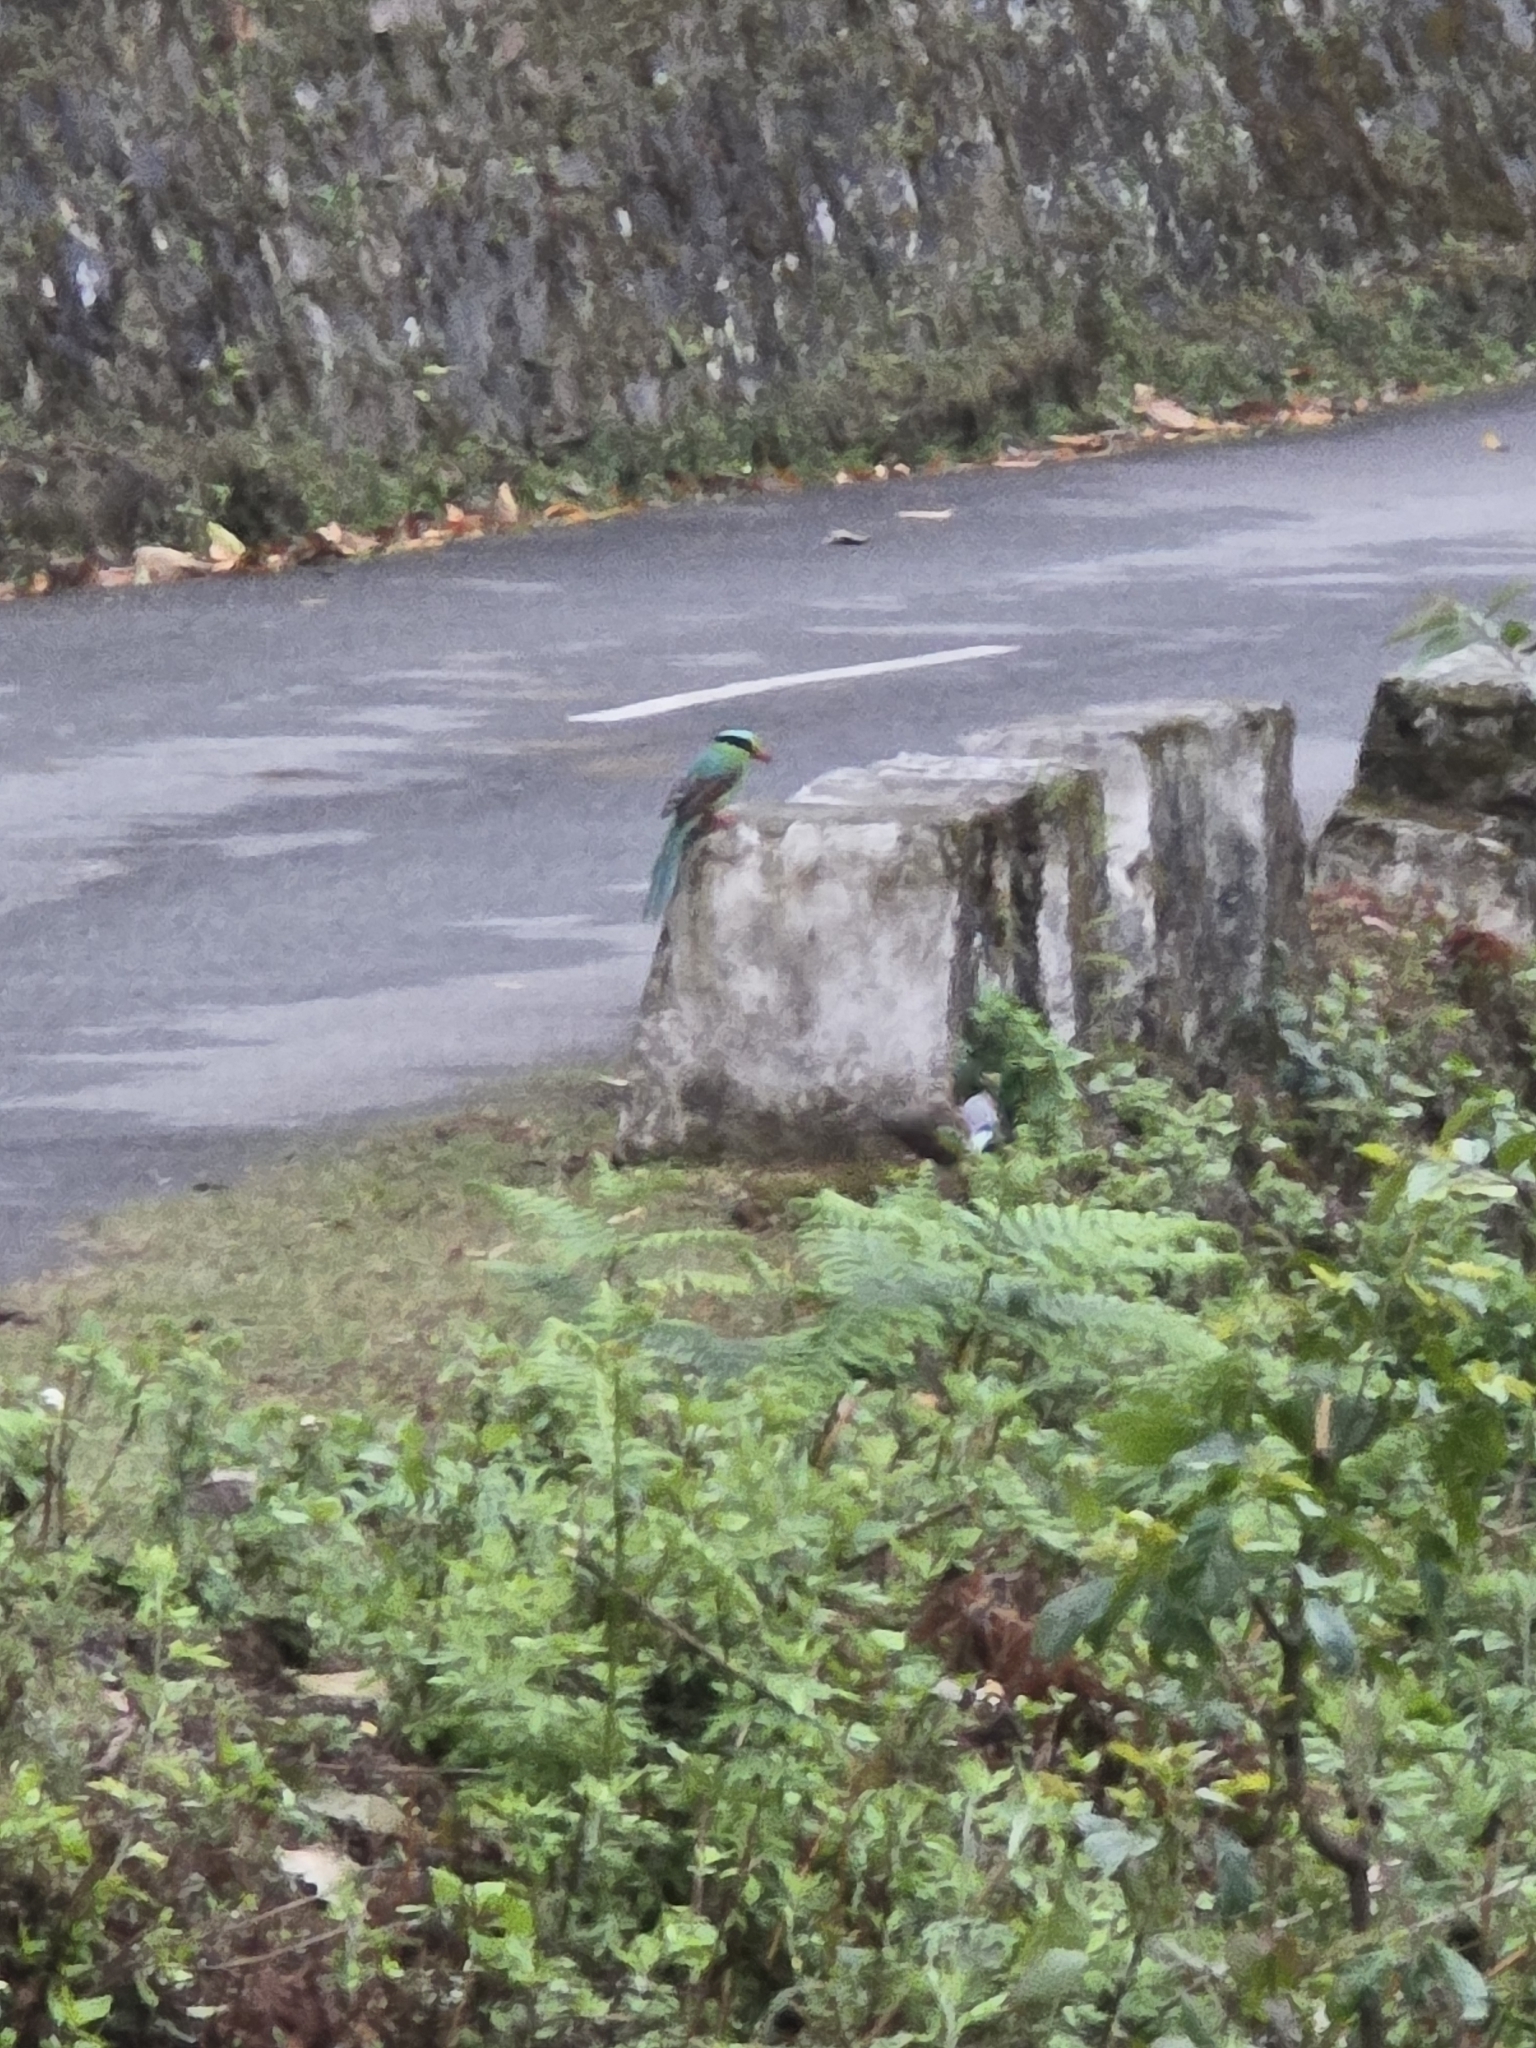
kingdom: Animalia
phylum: Chordata
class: Aves
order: Passeriformes
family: Corvidae
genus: Cissa
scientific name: Cissa chinensis
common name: Common green magpie
